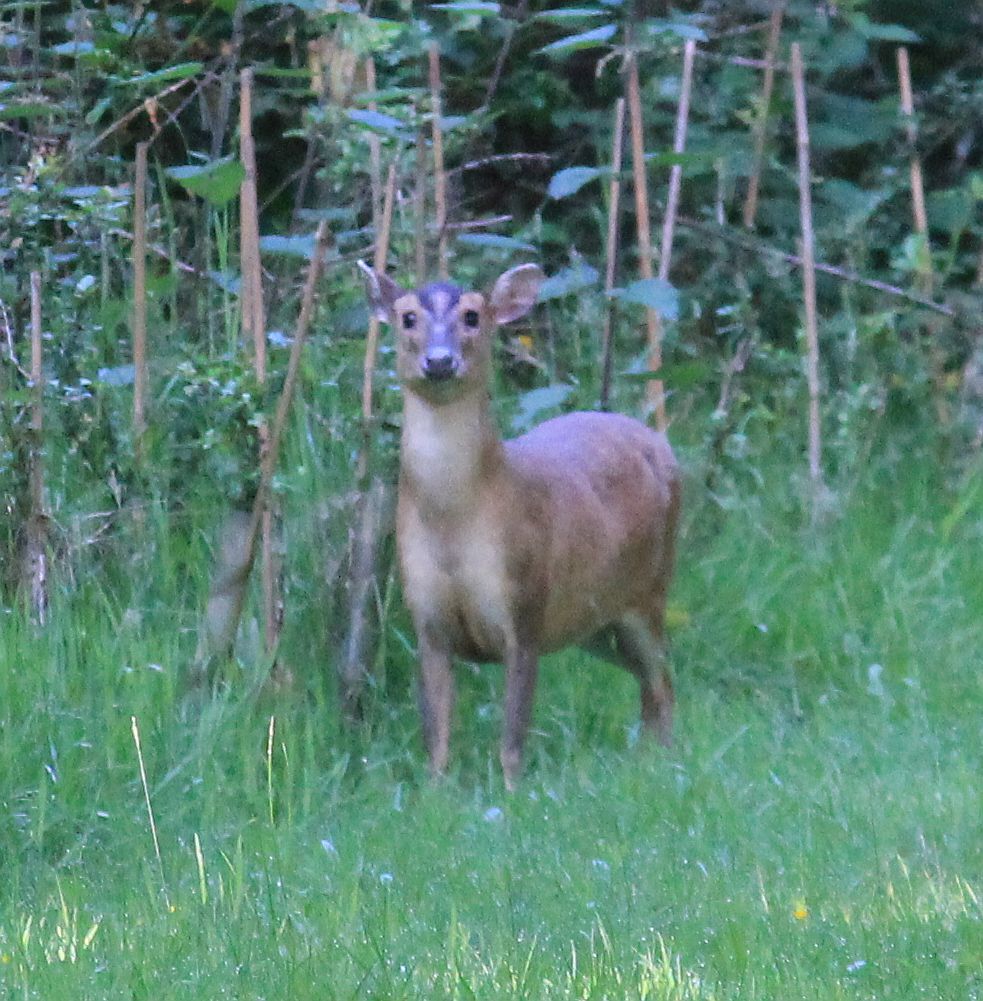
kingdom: Animalia
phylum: Chordata
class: Mammalia
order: Artiodactyla
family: Cervidae
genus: Muntiacus
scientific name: Muntiacus reevesi
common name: Reeves' muntjac
